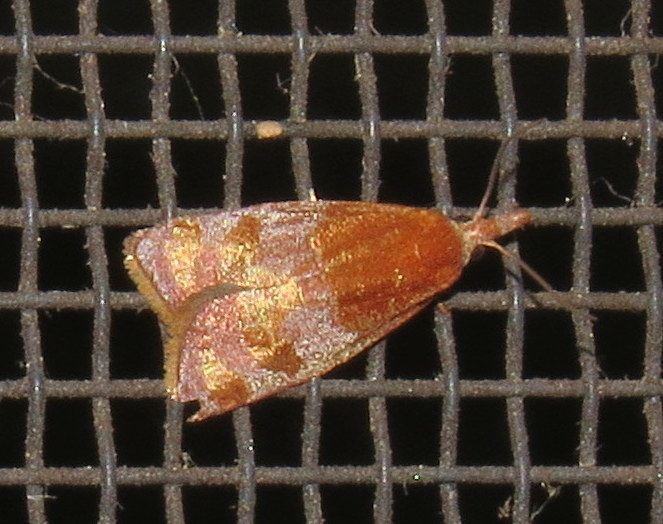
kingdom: Animalia
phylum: Arthropoda
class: Insecta
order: Lepidoptera
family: Tortricidae
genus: Cenopis
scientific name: Cenopis diluticostana
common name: Spring dead-leaf roller moth
